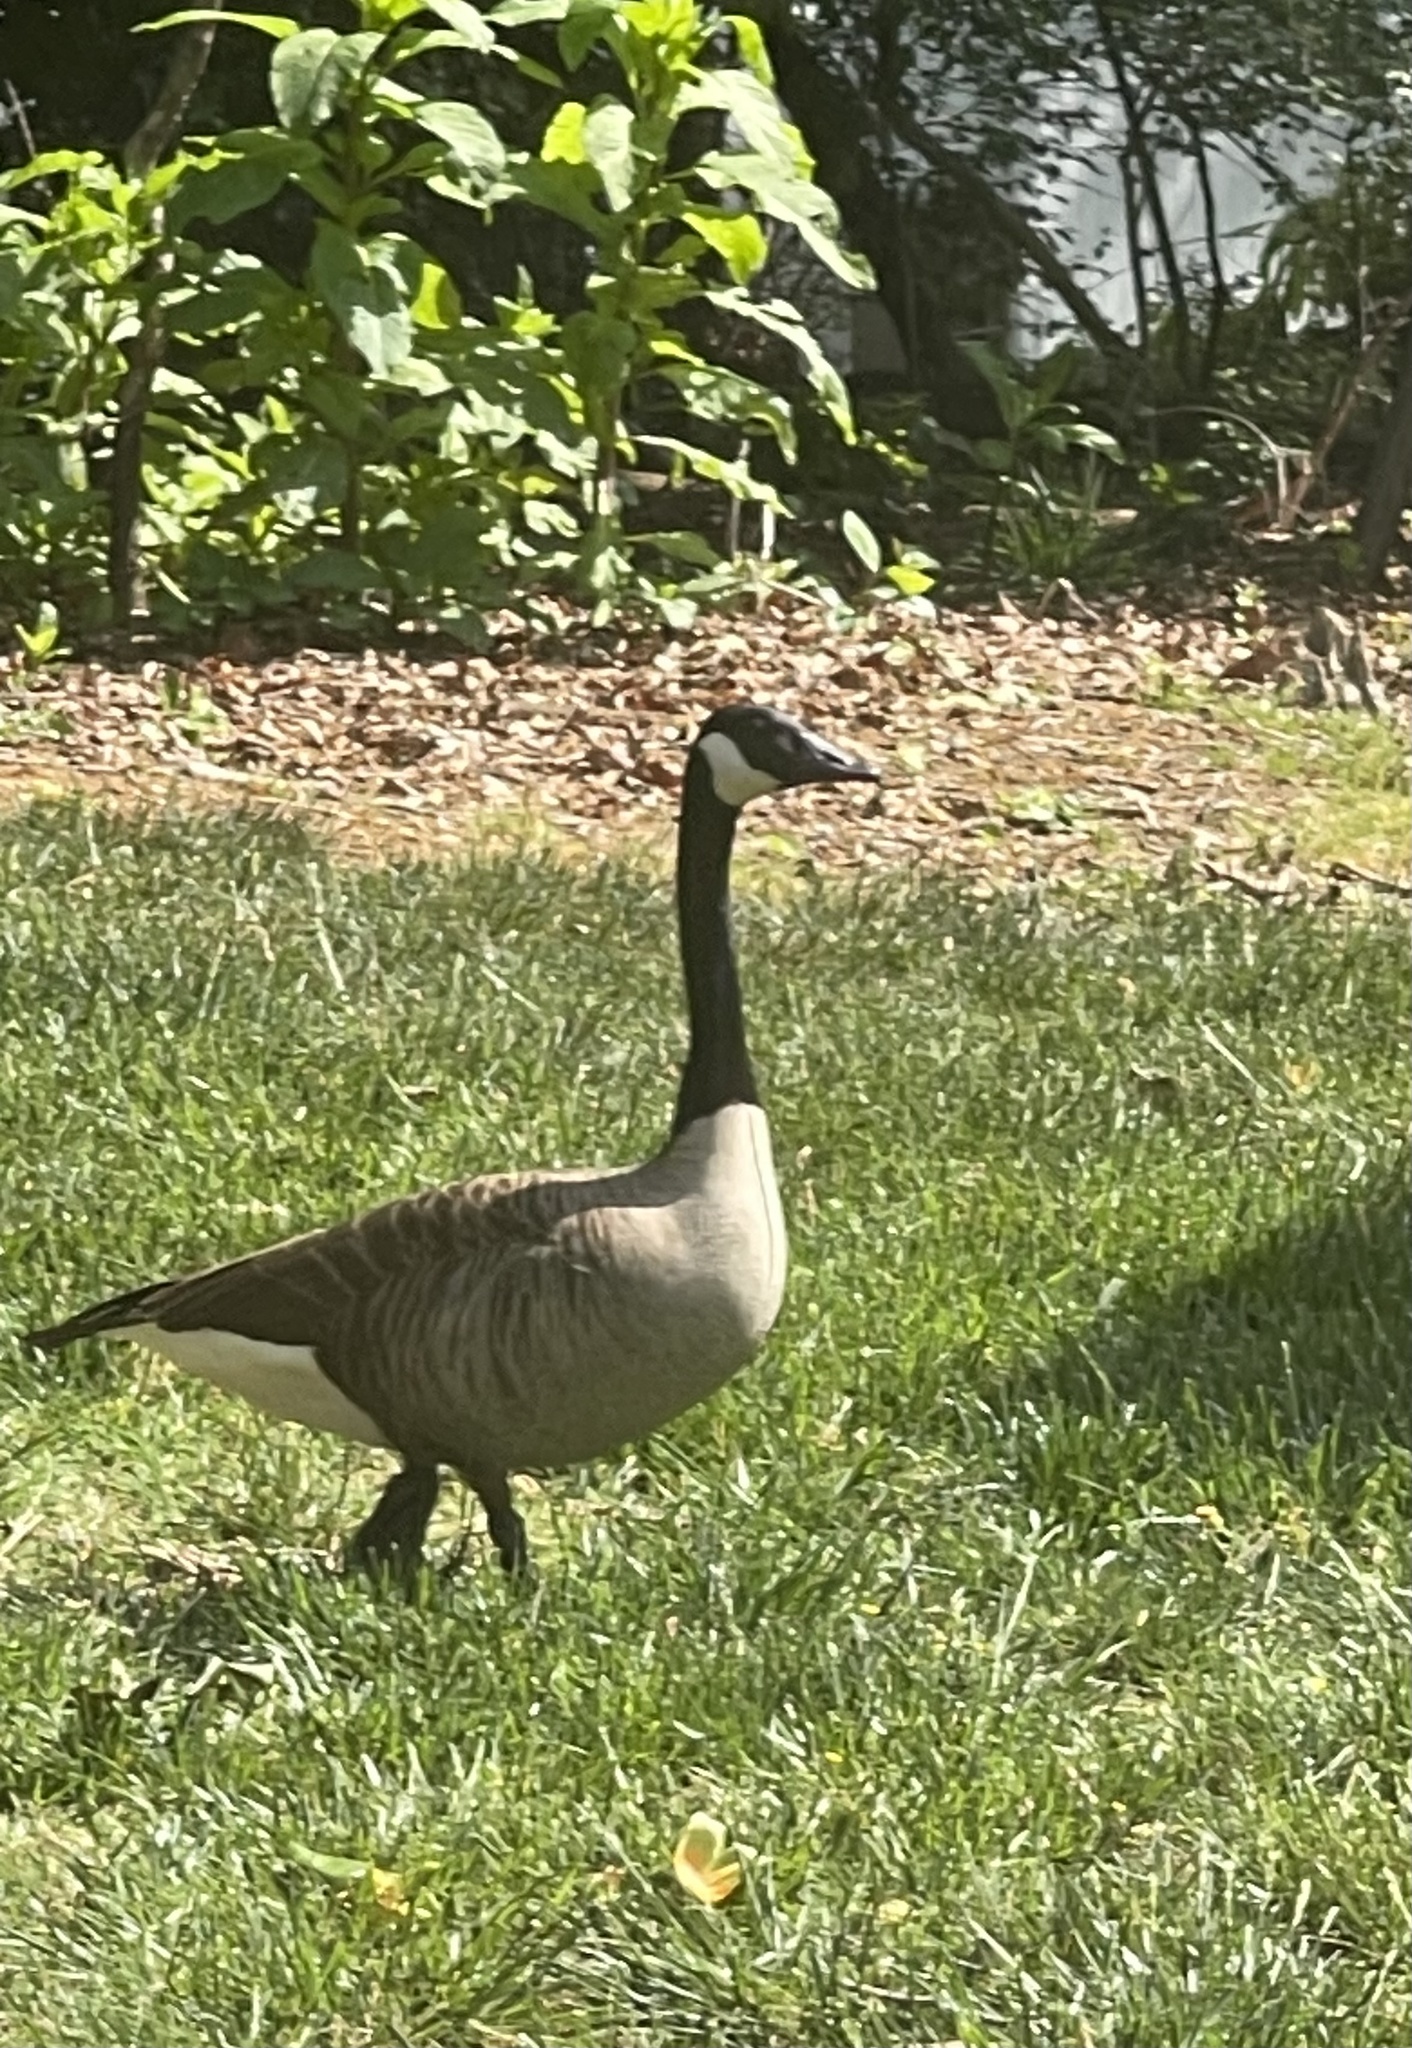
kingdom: Animalia
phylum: Chordata
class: Aves
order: Anseriformes
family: Anatidae
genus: Branta
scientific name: Branta canadensis
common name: Canada goose
